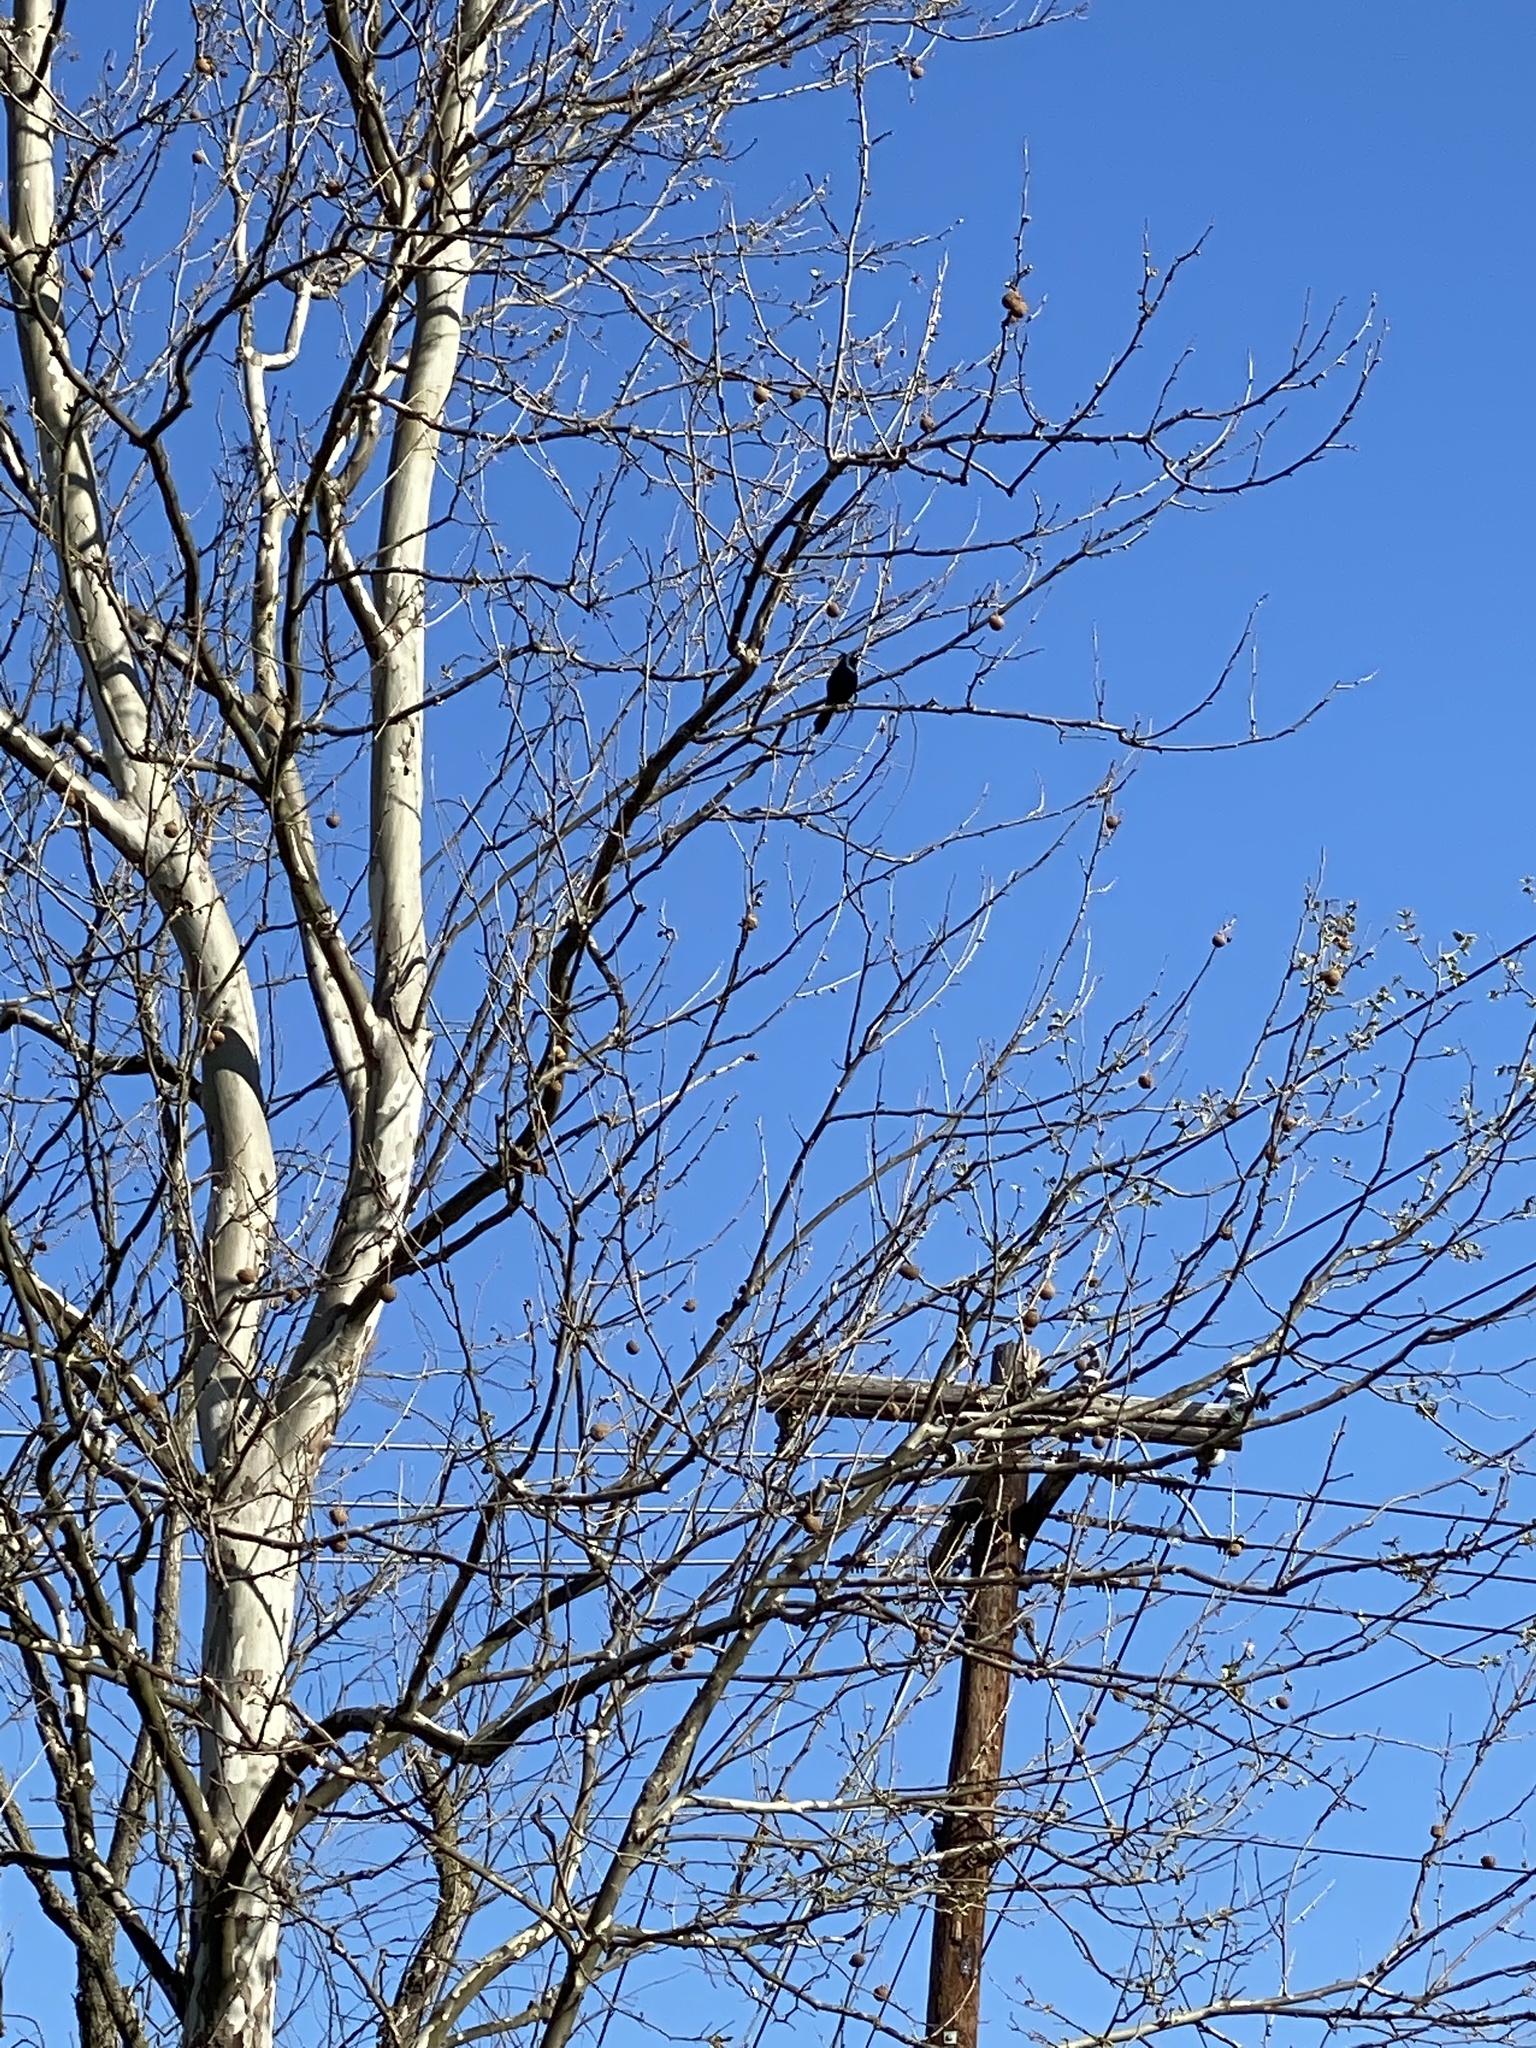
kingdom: Animalia
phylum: Chordata
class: Aves
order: Passeriformes
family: Icteridae
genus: Quiscalus
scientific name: Quiscalus quiscula
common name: Common grackle
